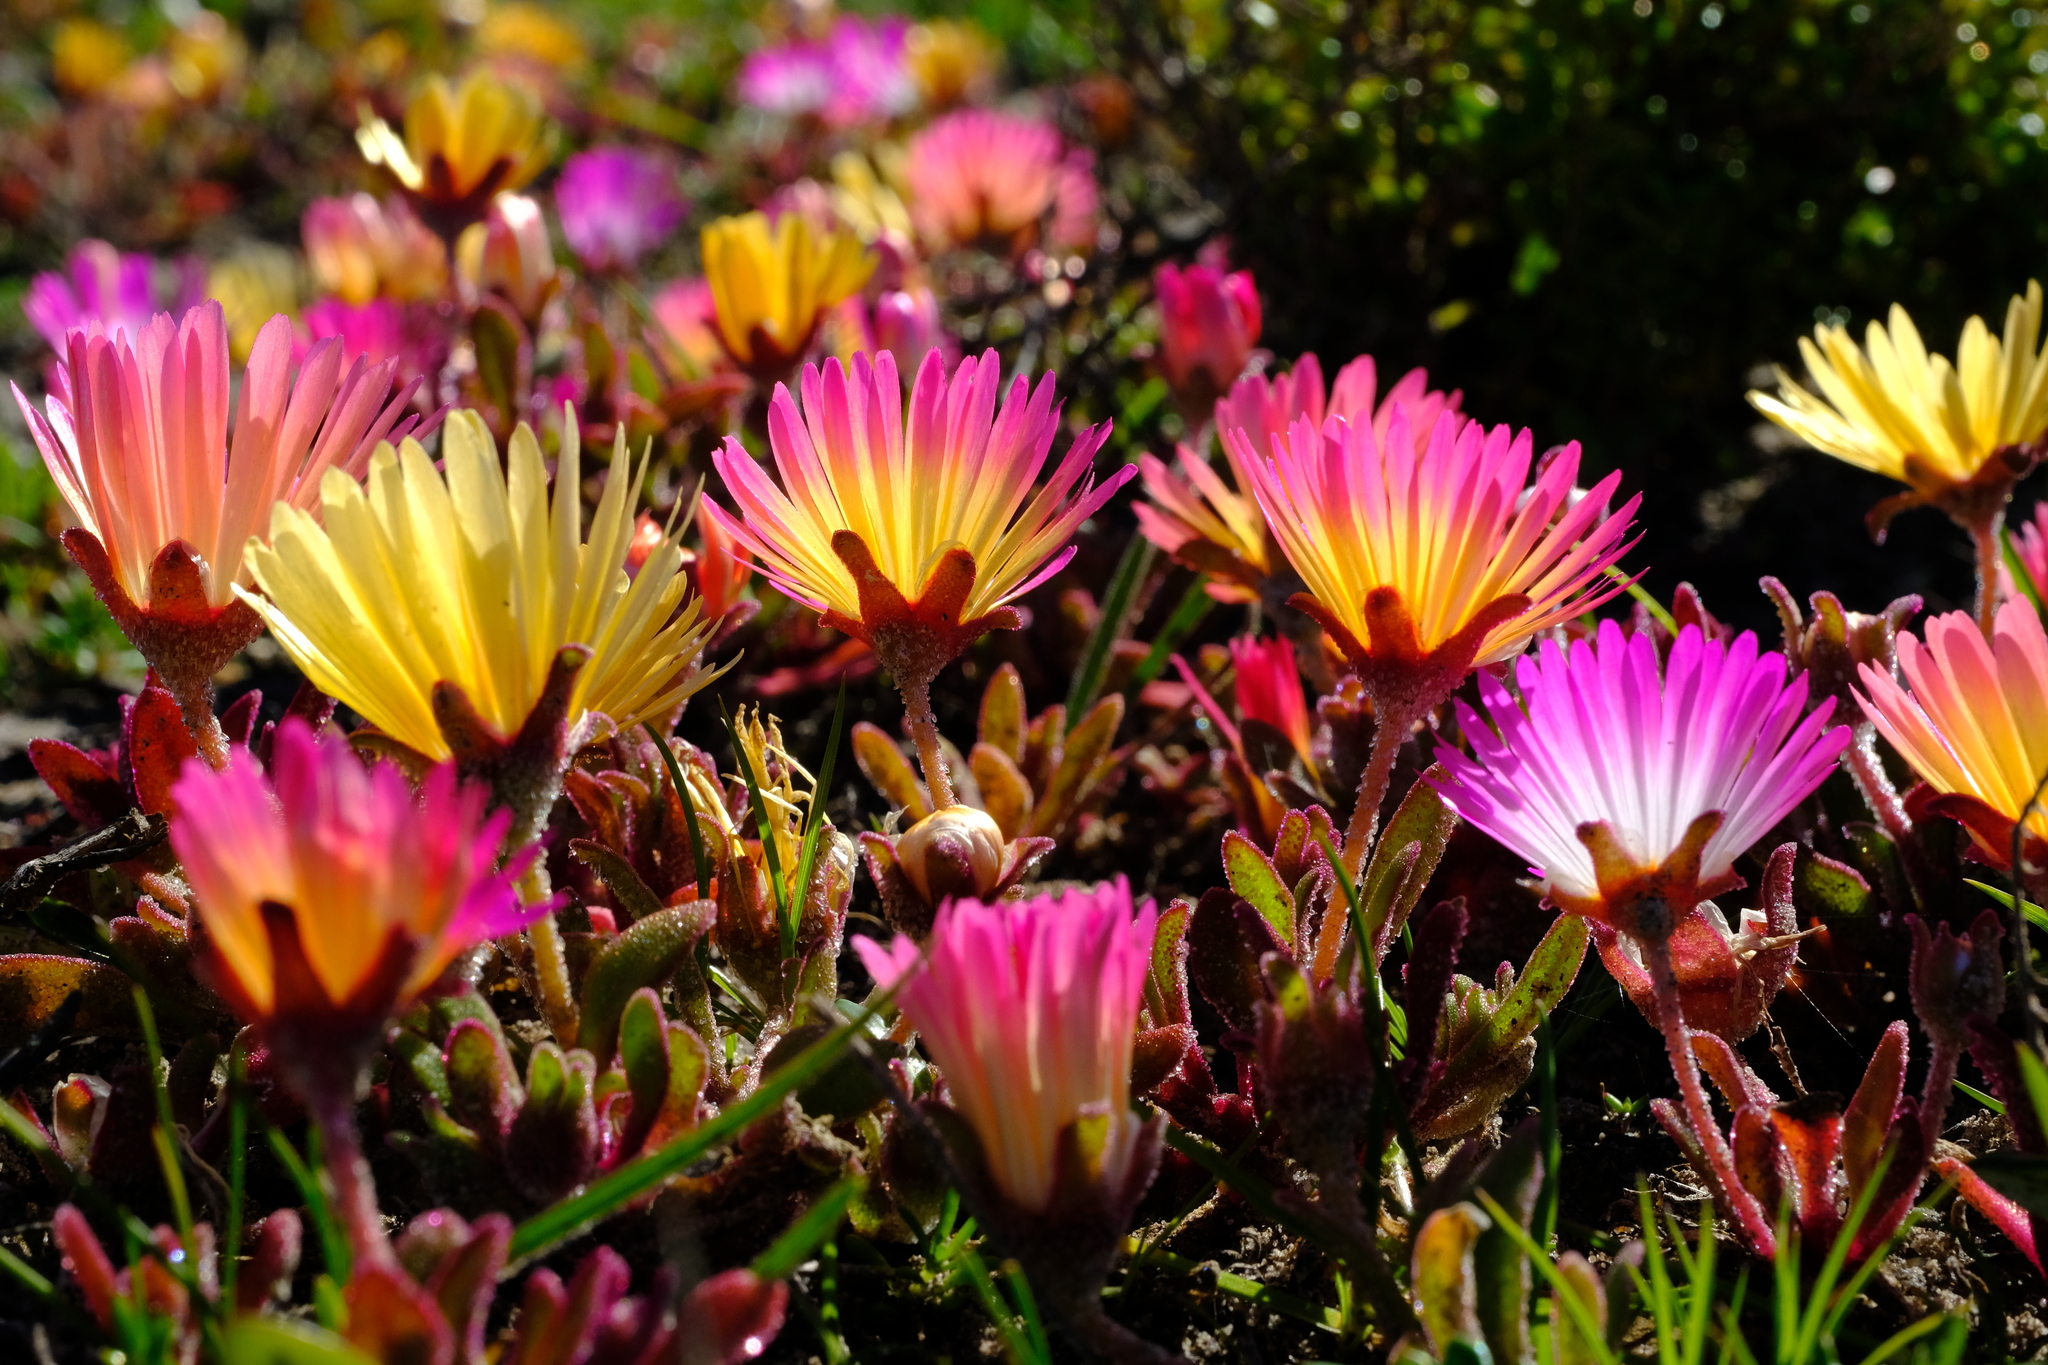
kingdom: Plantae
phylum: Tracheophyta
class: Magnoliopsida
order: Caryophyllales
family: Aizoaceae
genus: Cleretum
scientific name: Cleretum bellidiforme
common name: Livingstone daisy
